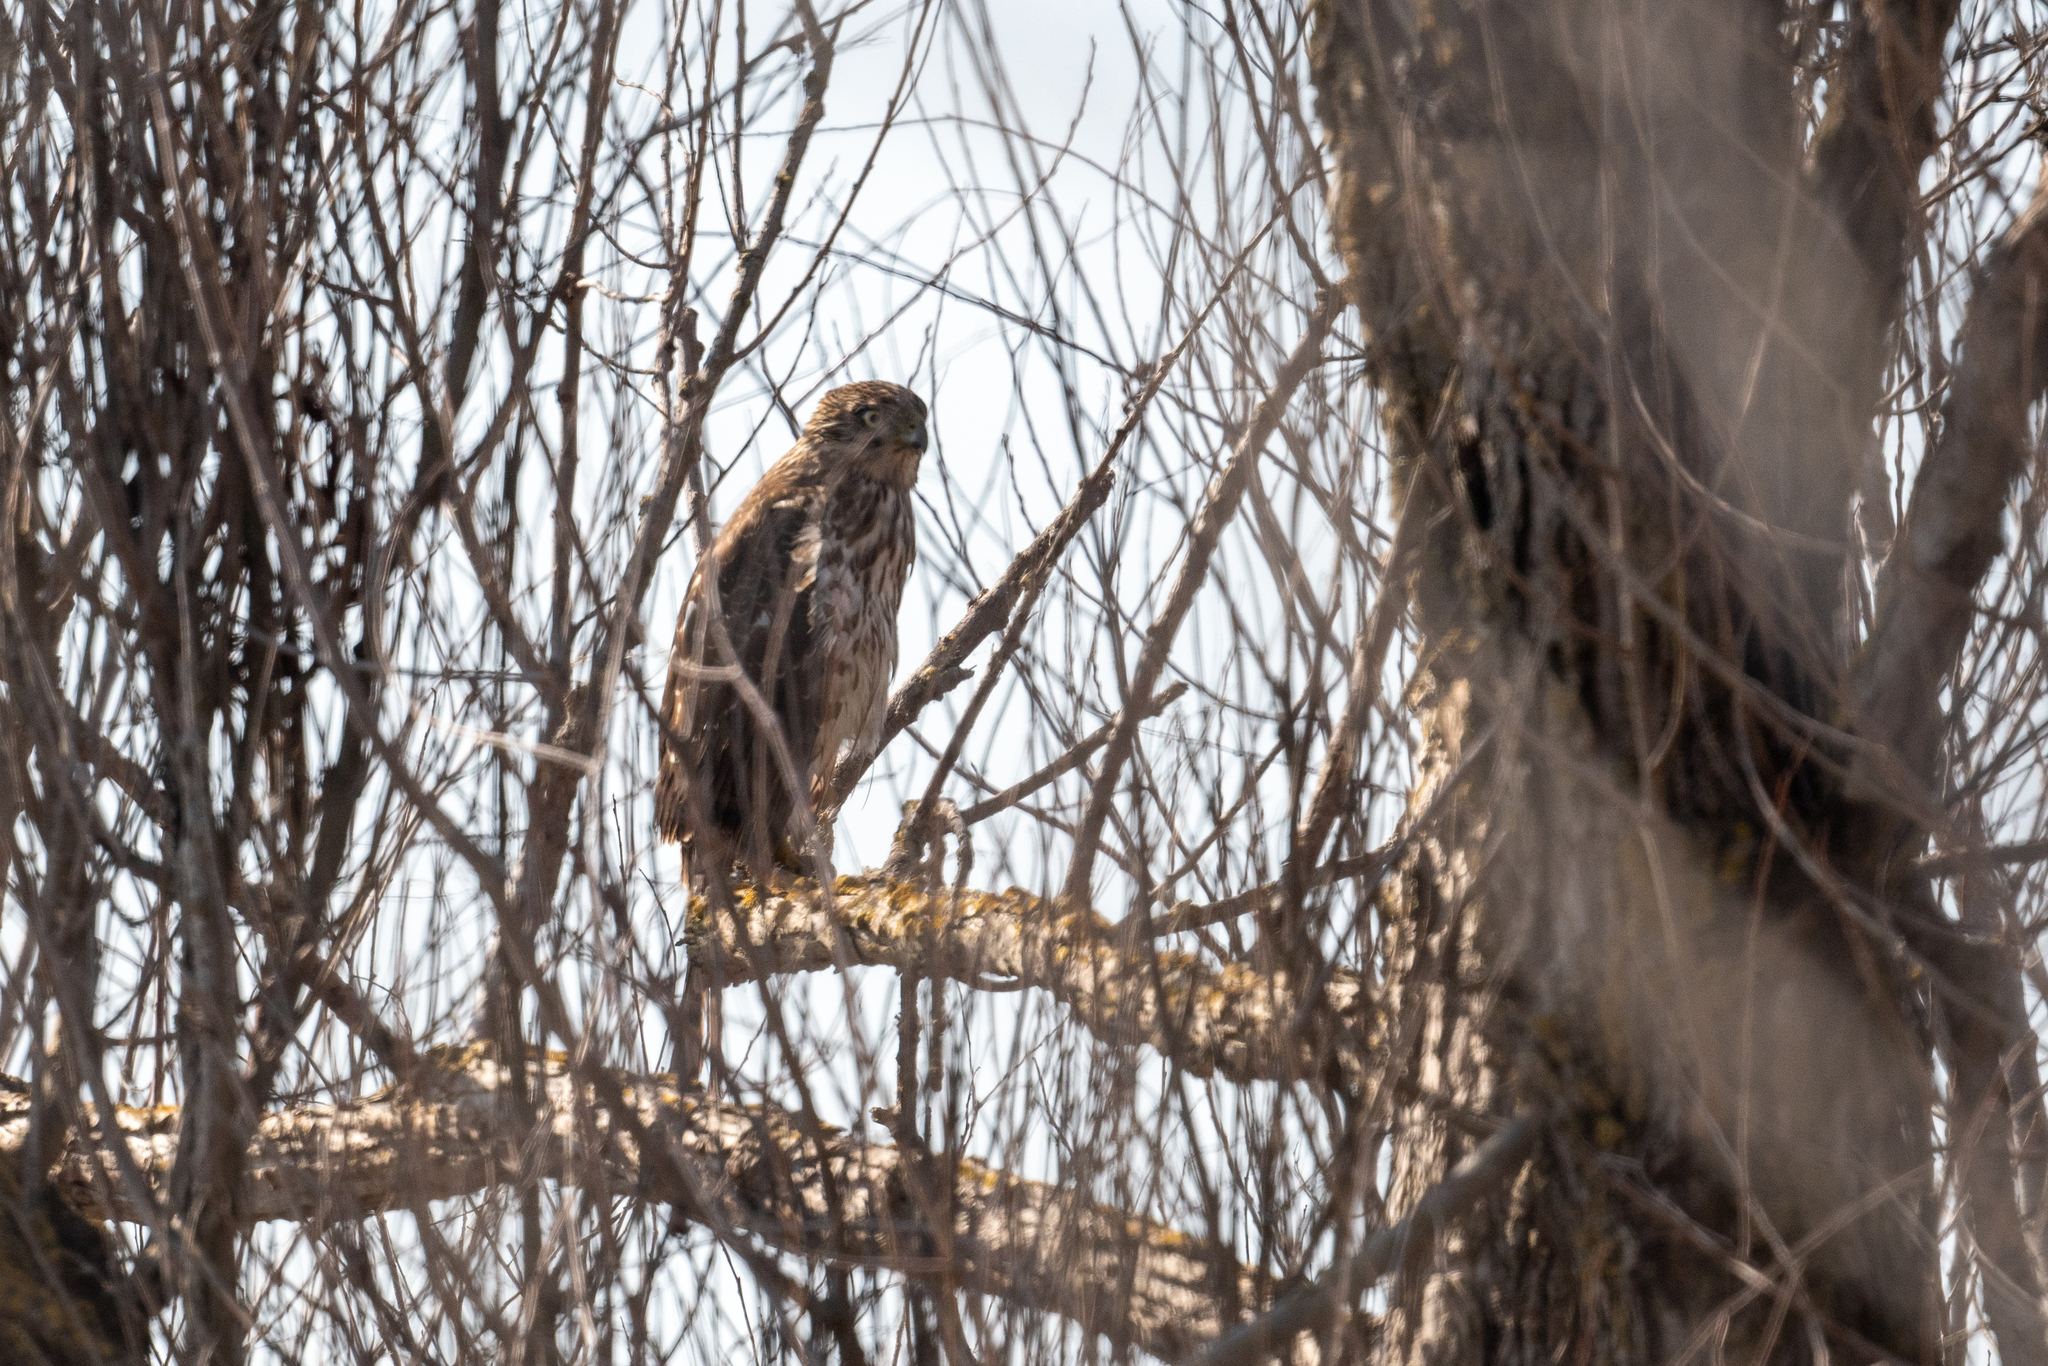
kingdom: Animalia
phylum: Chordata
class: Aves
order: Accipitriformes
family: Accipitridae
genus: Accipiter
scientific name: Accipiter cooperii
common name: Cooper's hawk
